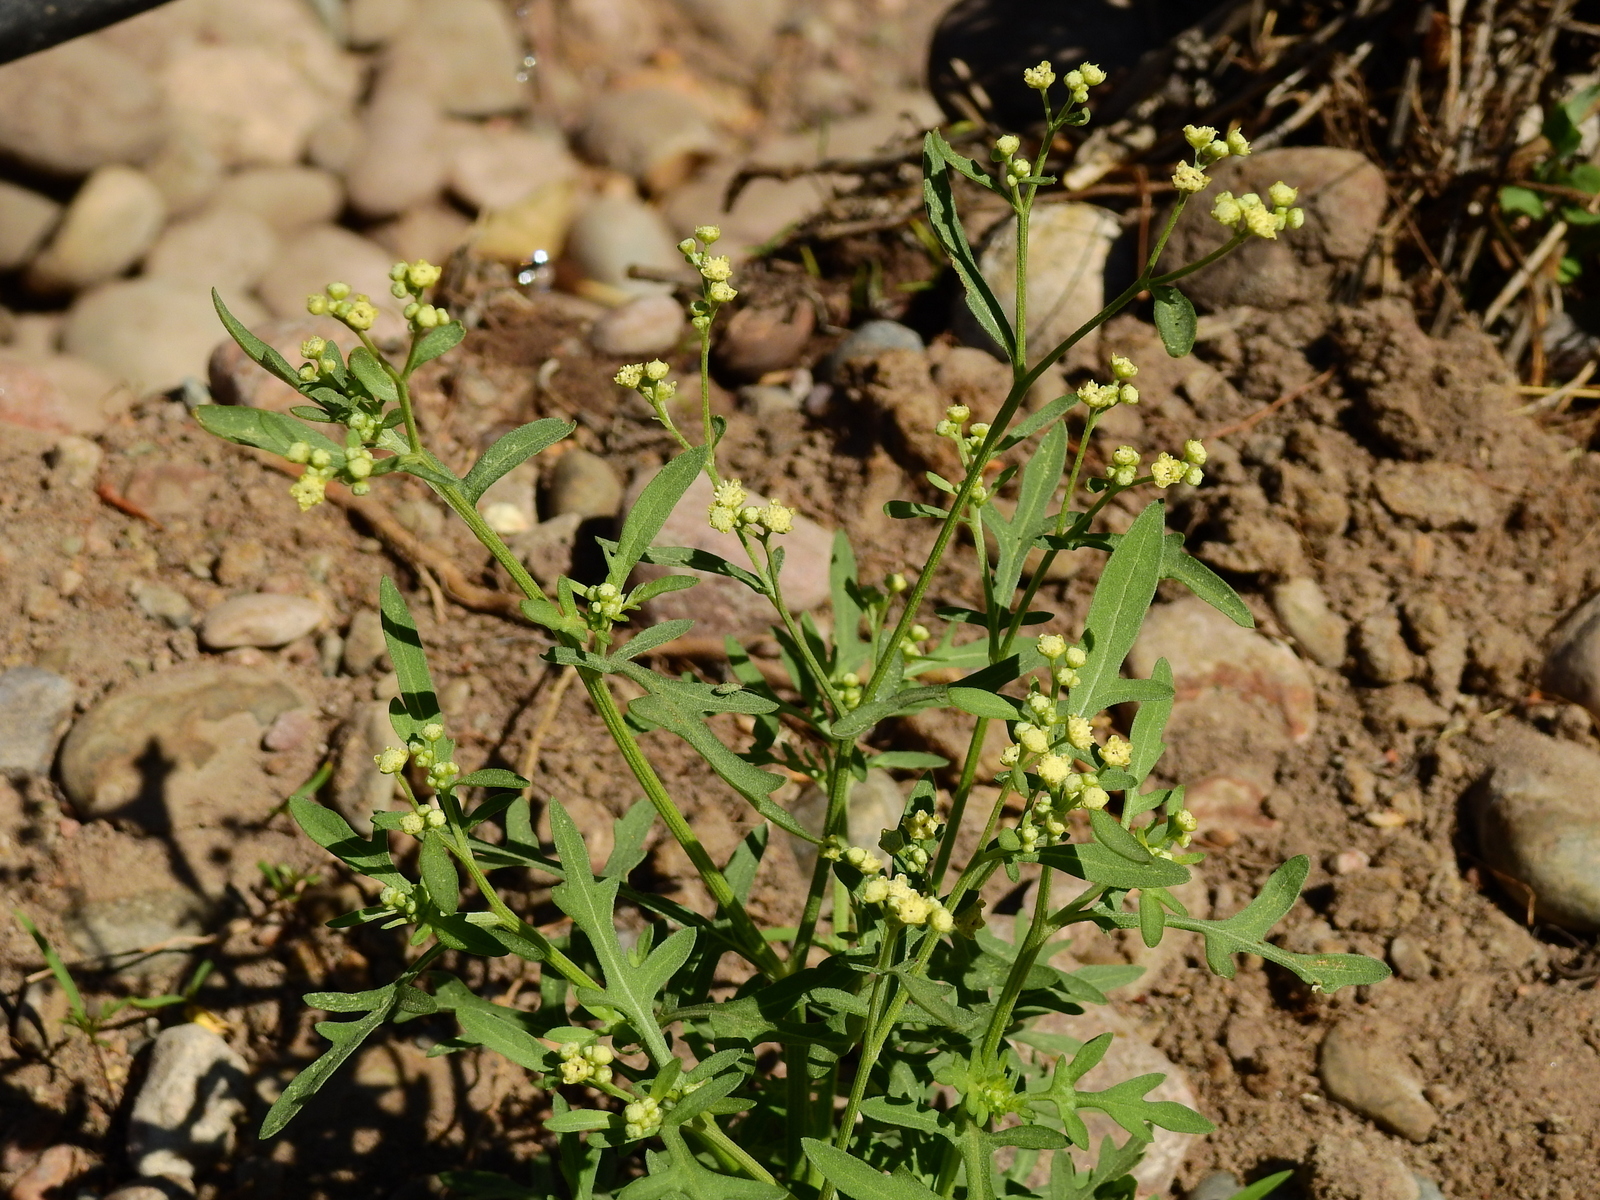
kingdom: Plantae
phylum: Tracheophyta
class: Magnoliopsida
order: Asterales
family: Asteraceae
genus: Parthenium
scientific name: Parthenium hysterophorus
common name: Santa maria feverfew
